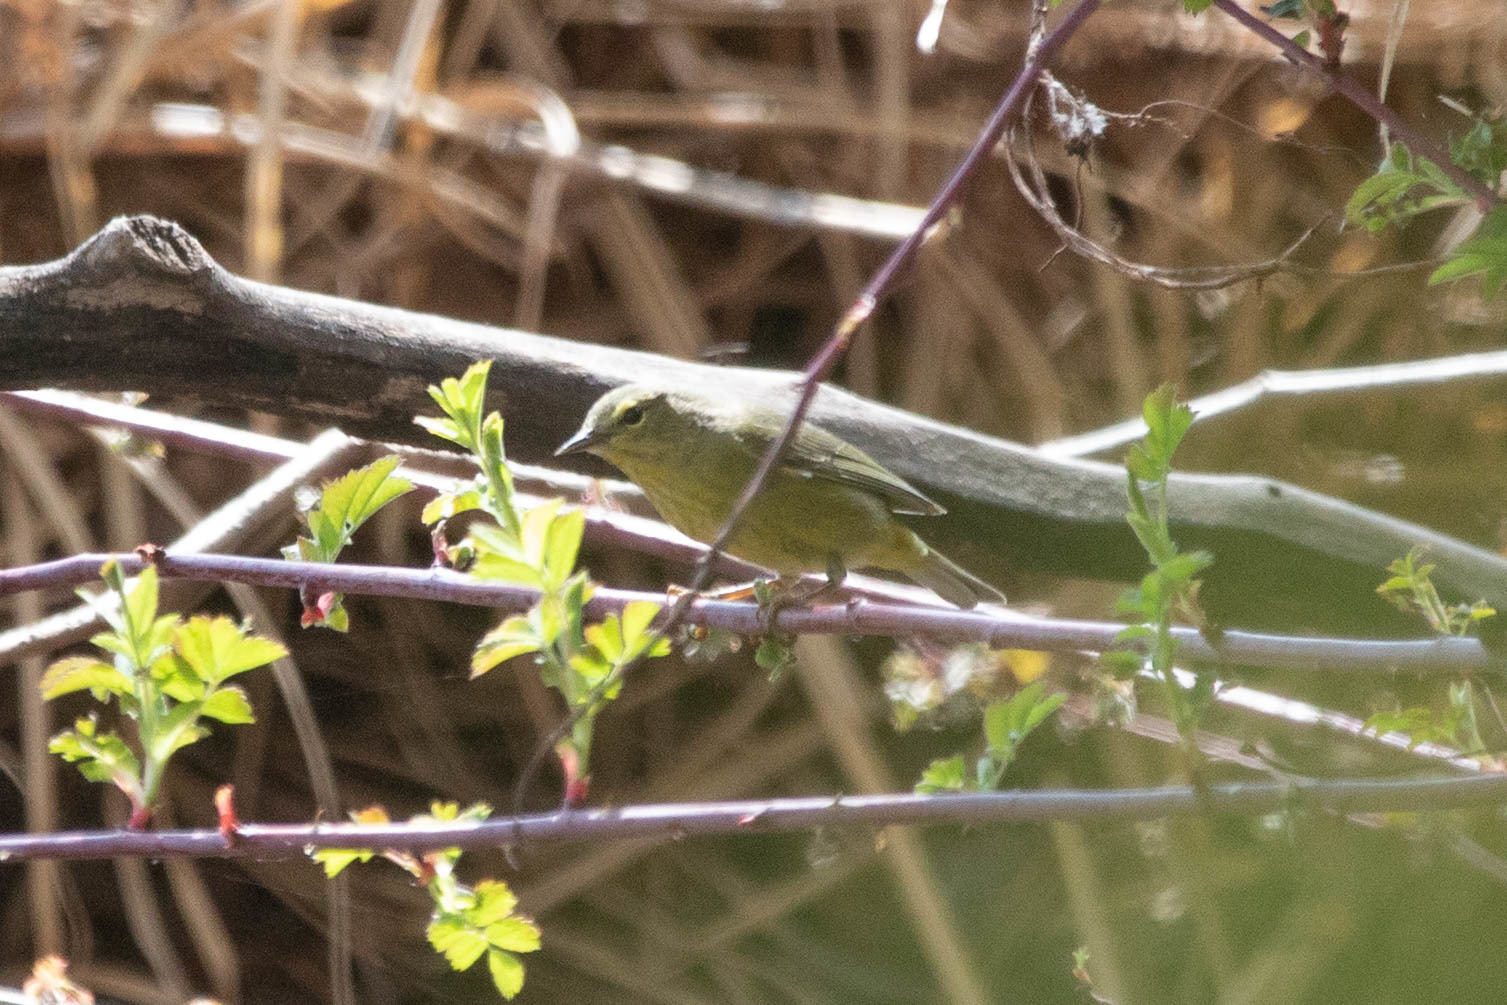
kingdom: Animalia
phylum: Chordata
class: Aves
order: Passeriformes
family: Parulidae
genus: Leiothlypis
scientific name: Leiothlypis celata
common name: Orange-crowned warbler
